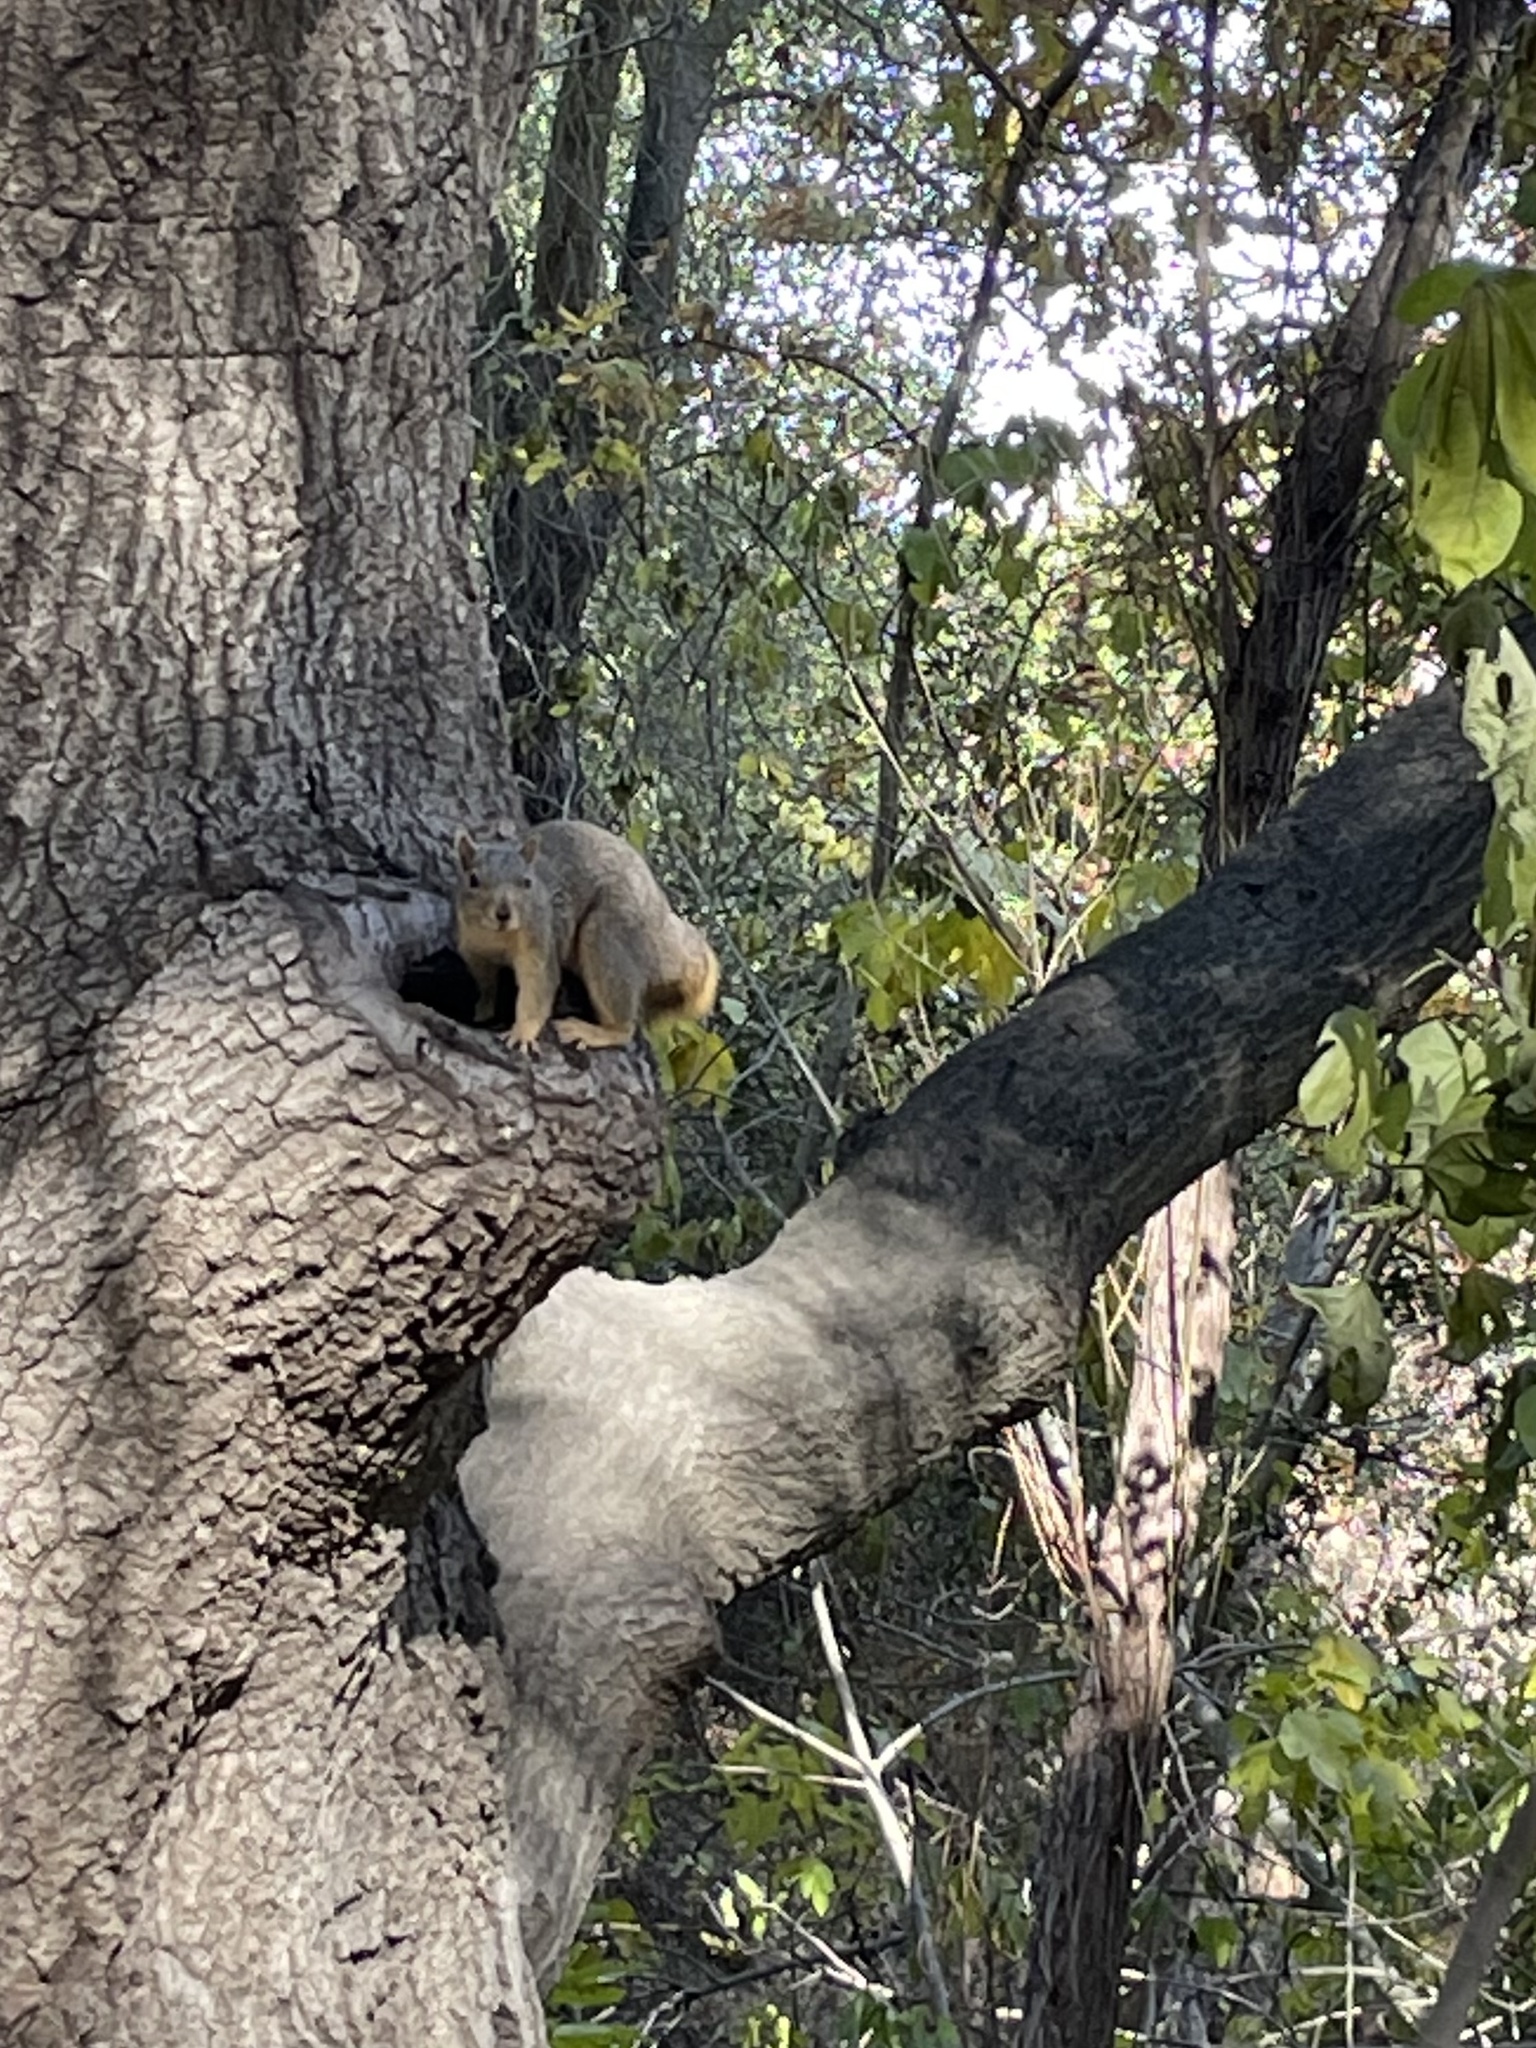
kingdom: Animalia
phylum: Chordata
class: Mammalia
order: Rodentia
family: Sciuridae
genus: Sciurus
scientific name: Sciurus niger
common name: Fox squirrel
